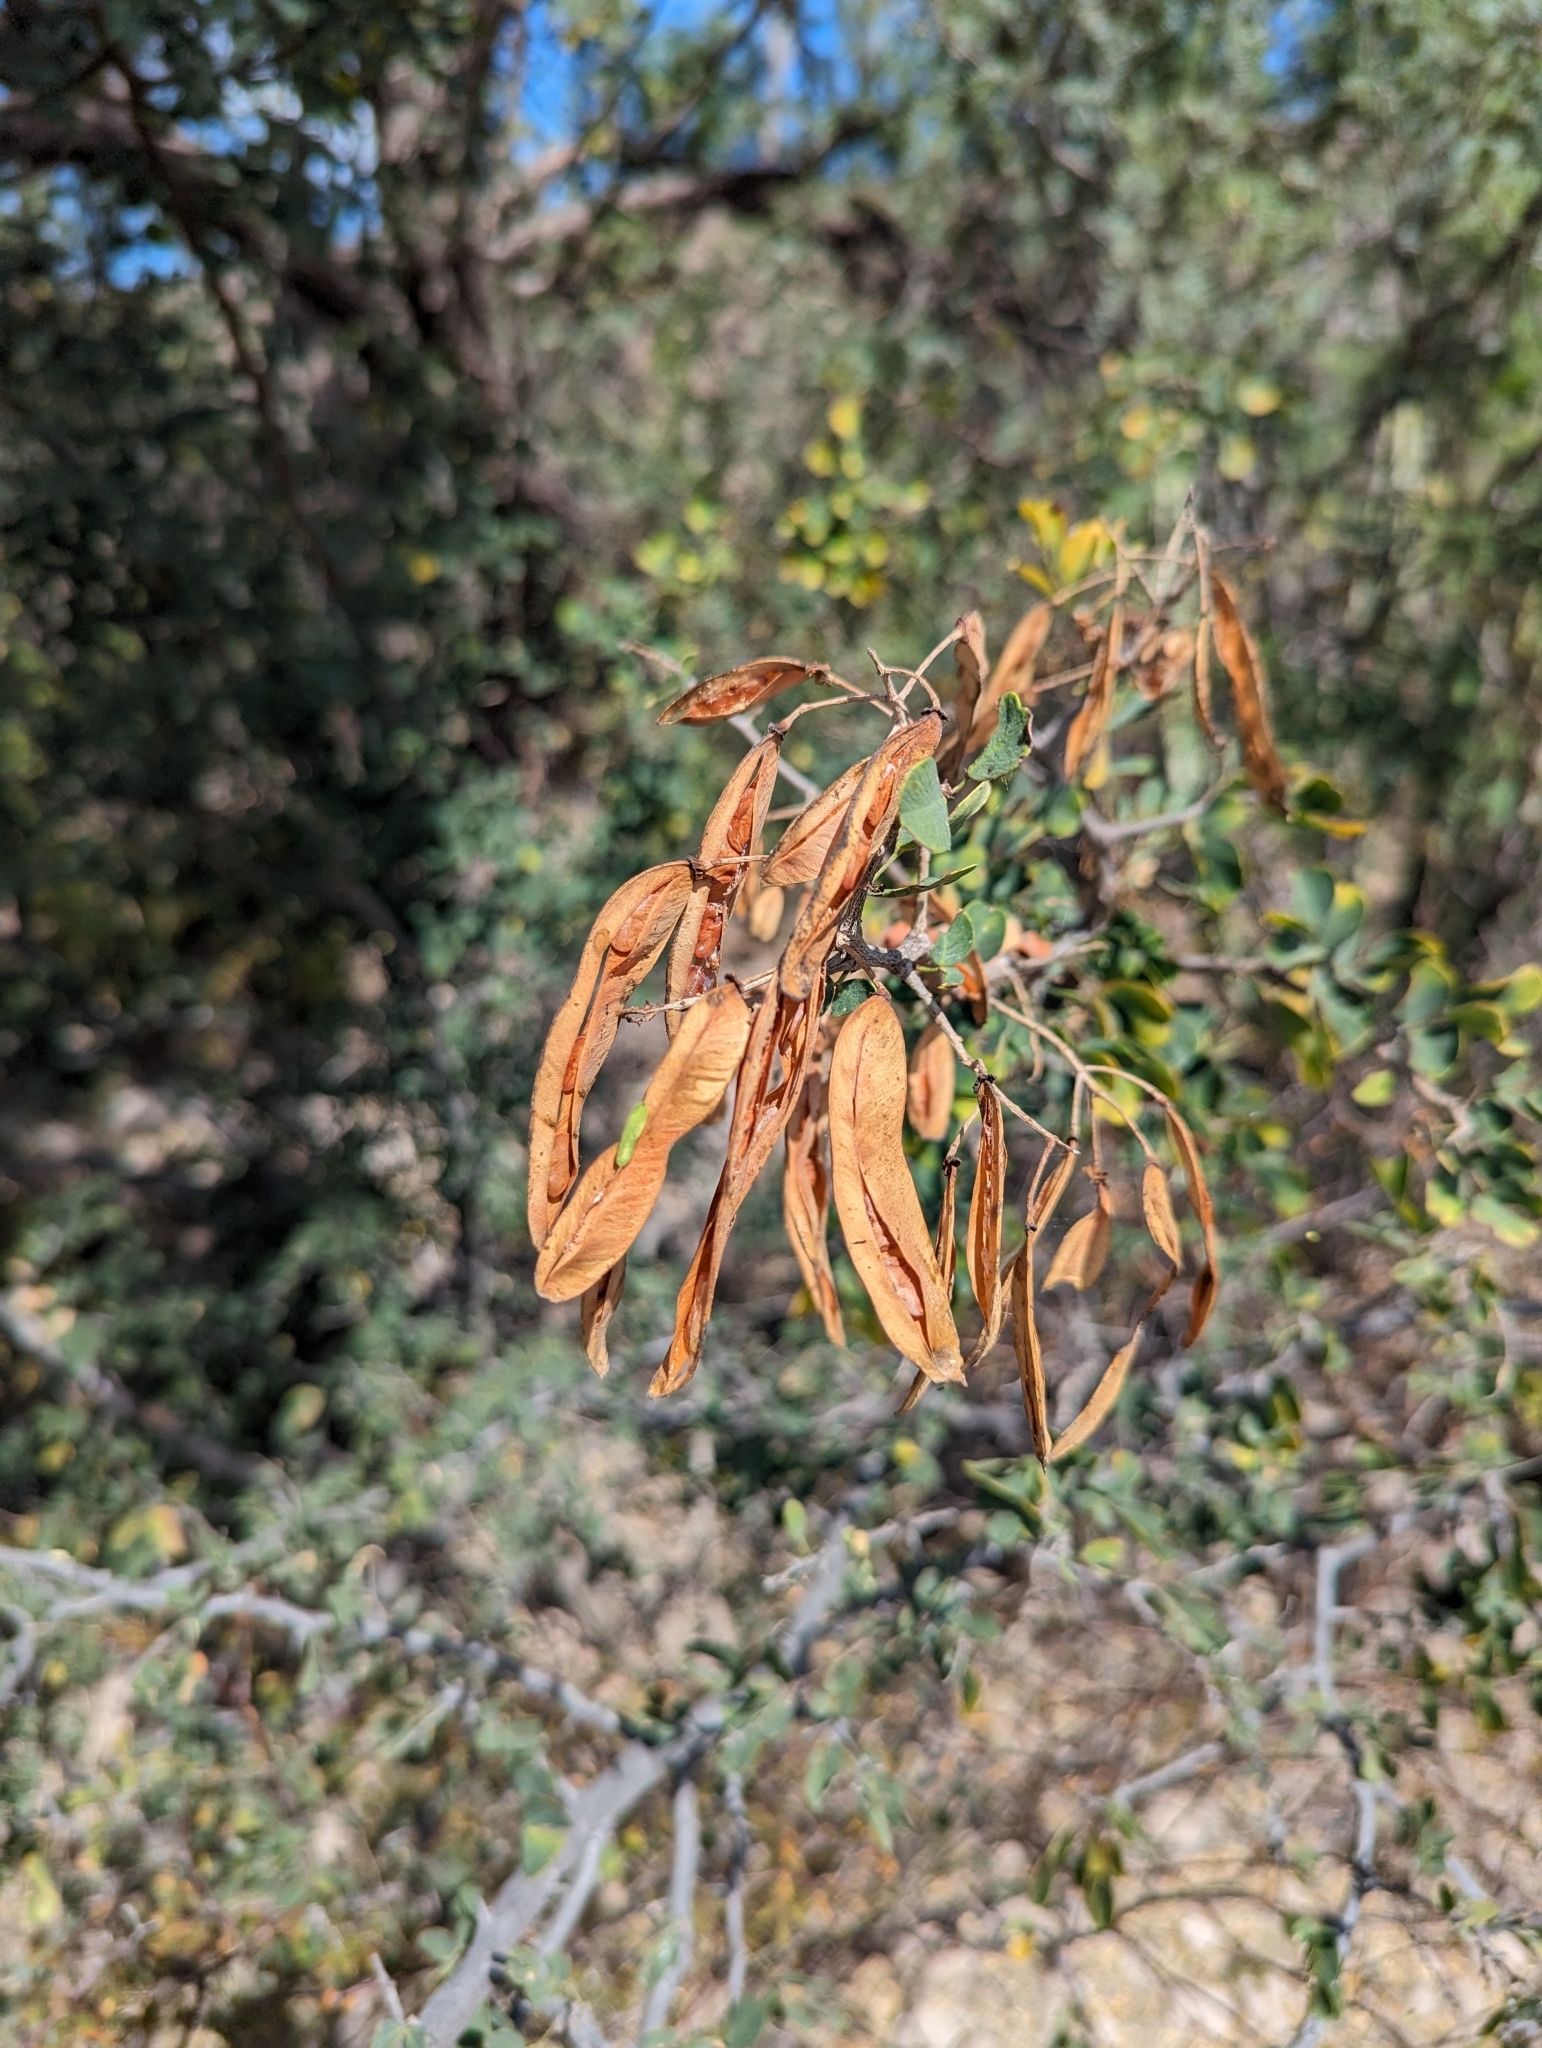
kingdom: Plantae
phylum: Tracheophyta
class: Magnoliopsida
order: Fabales
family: Fabaceae
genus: Haematoxylum
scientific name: Haematoxylum brasiletto
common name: Peachwood
